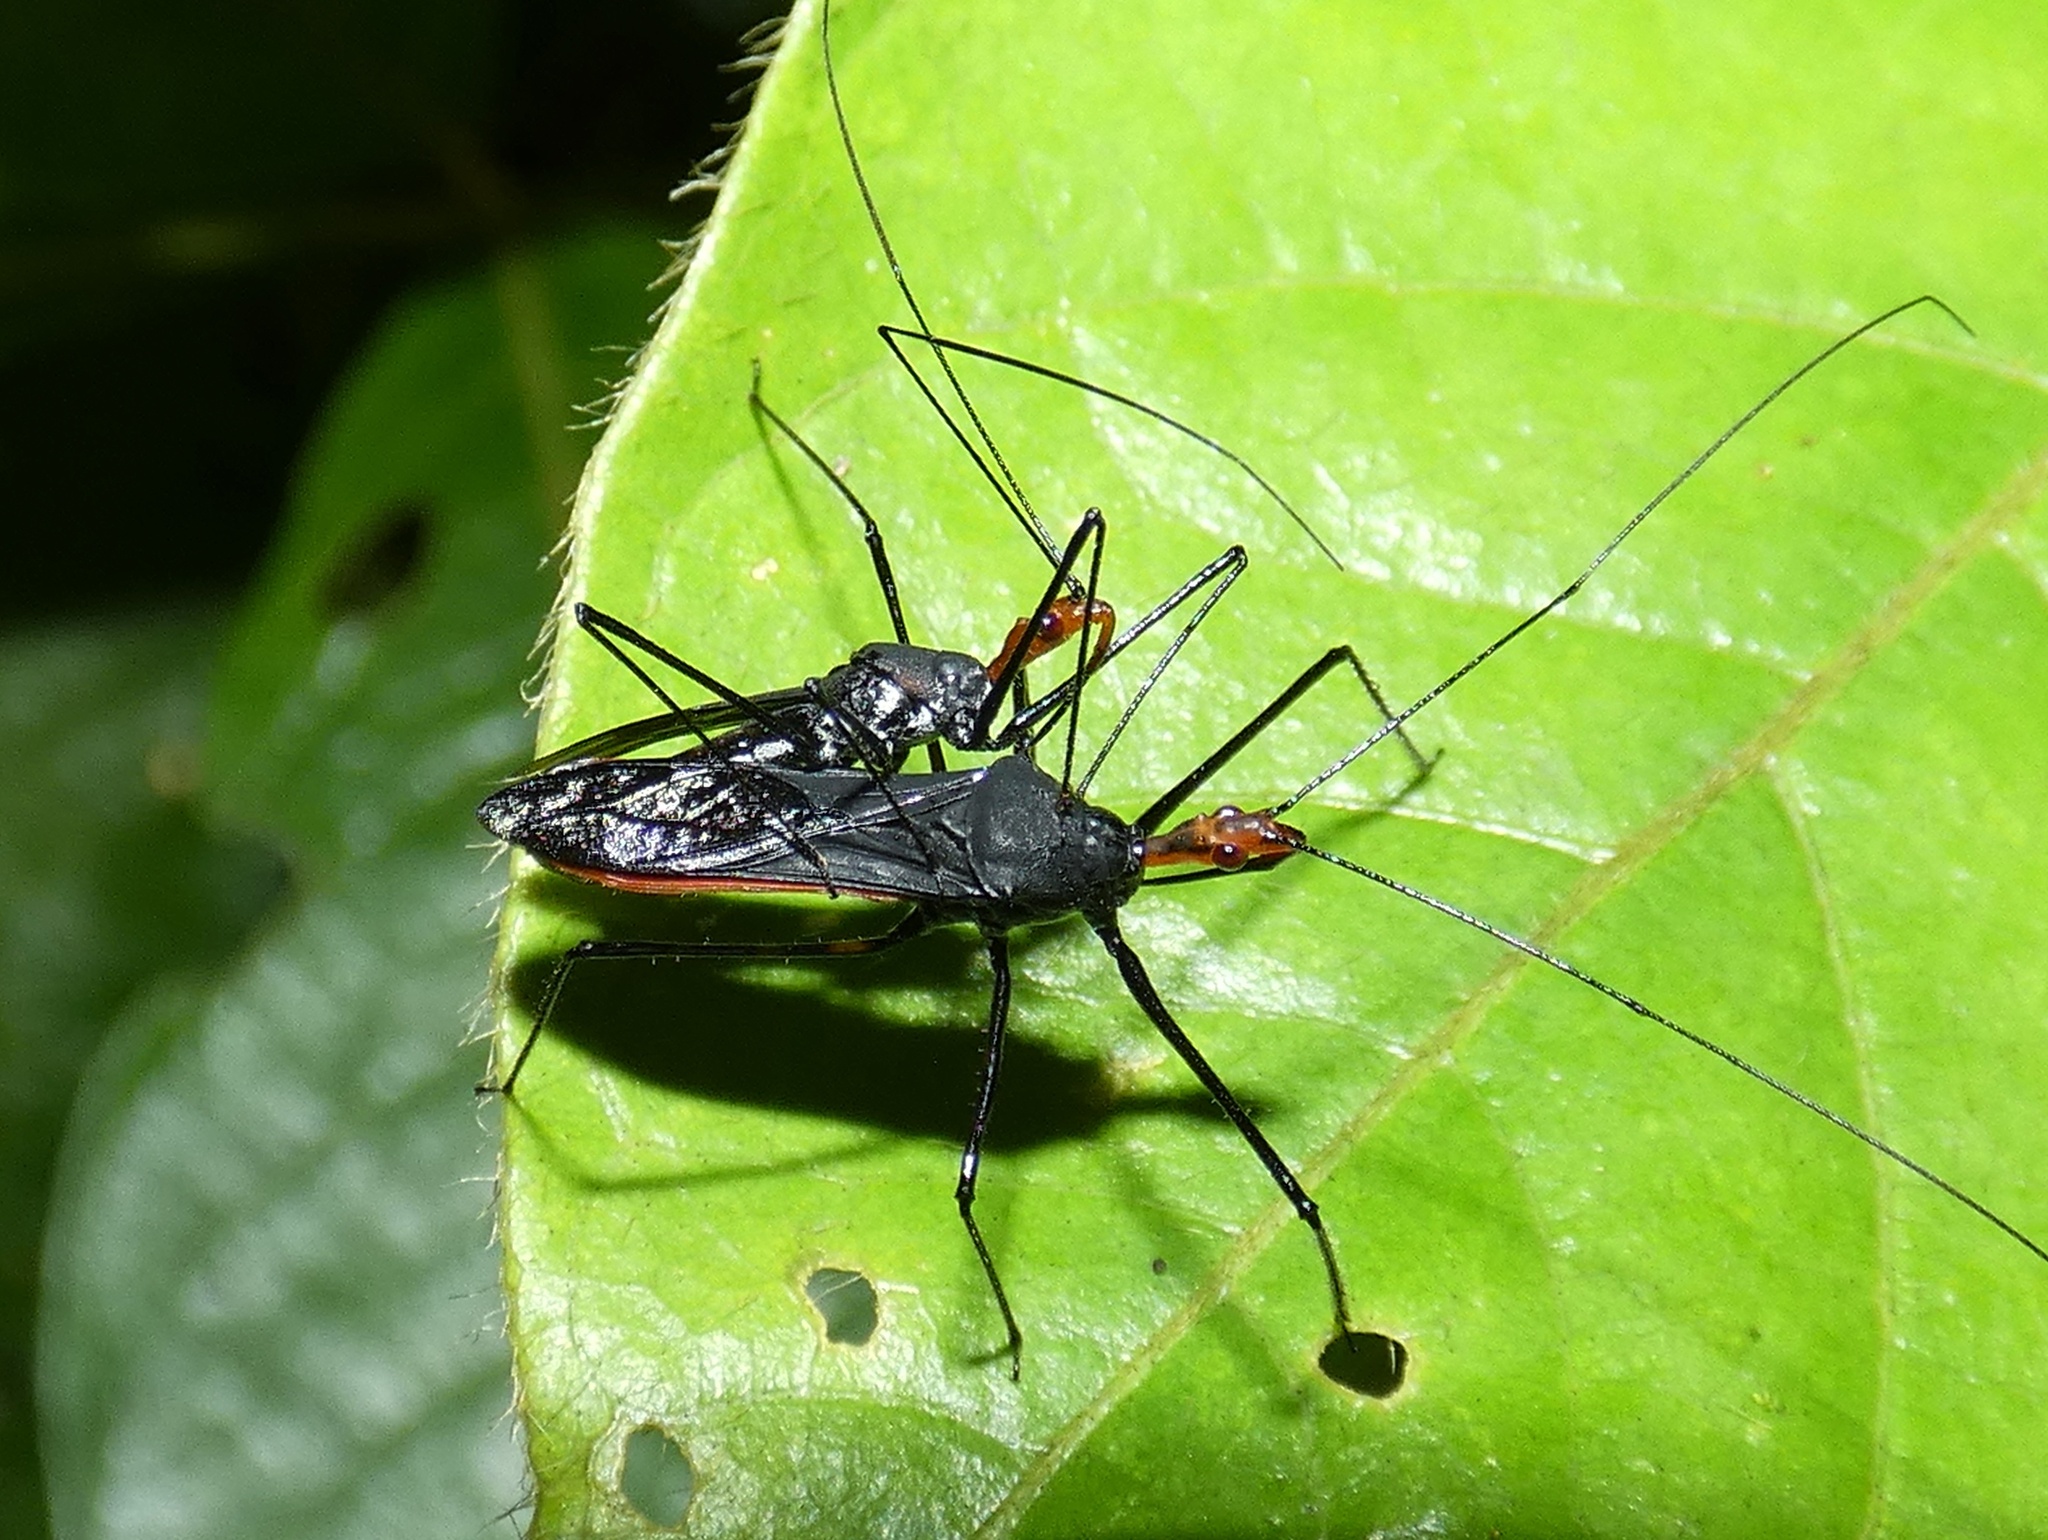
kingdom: Animalia
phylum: Arthropoda
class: Insecta
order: Hemiptera
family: Reduviidae
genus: Zelus
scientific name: Zelus panamensis
